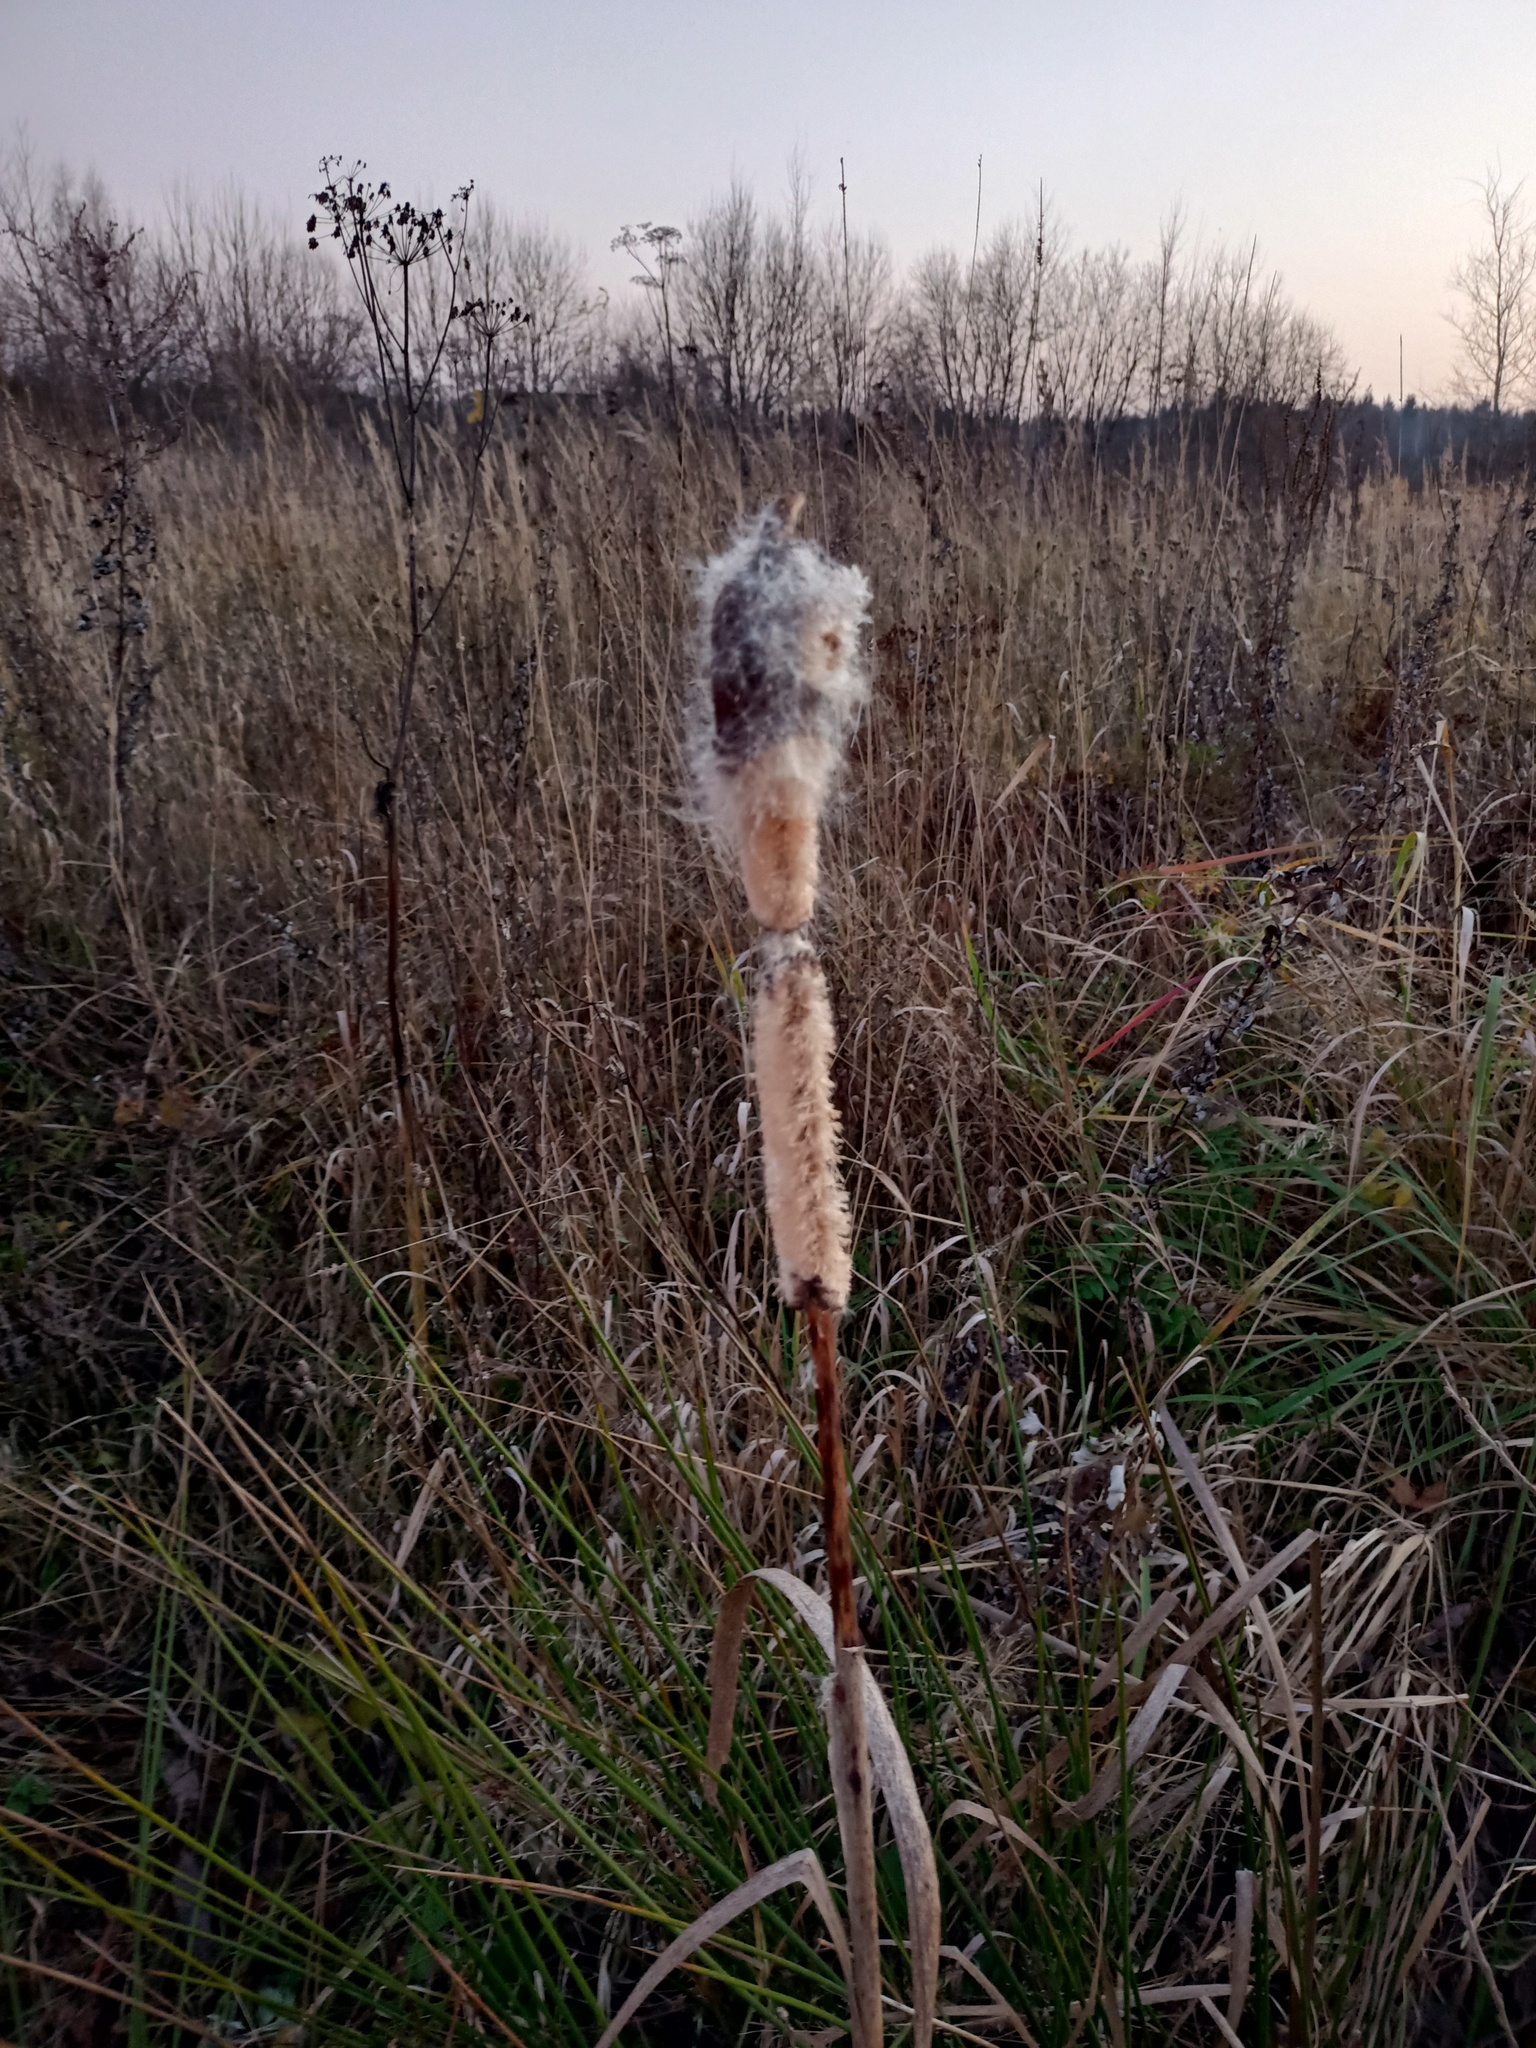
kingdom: Plantae
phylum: Tracheophyta
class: Liliopsida
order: Poales
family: Typhaceae
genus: Typha
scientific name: Typha latifolia
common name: Broadleaf cattail
